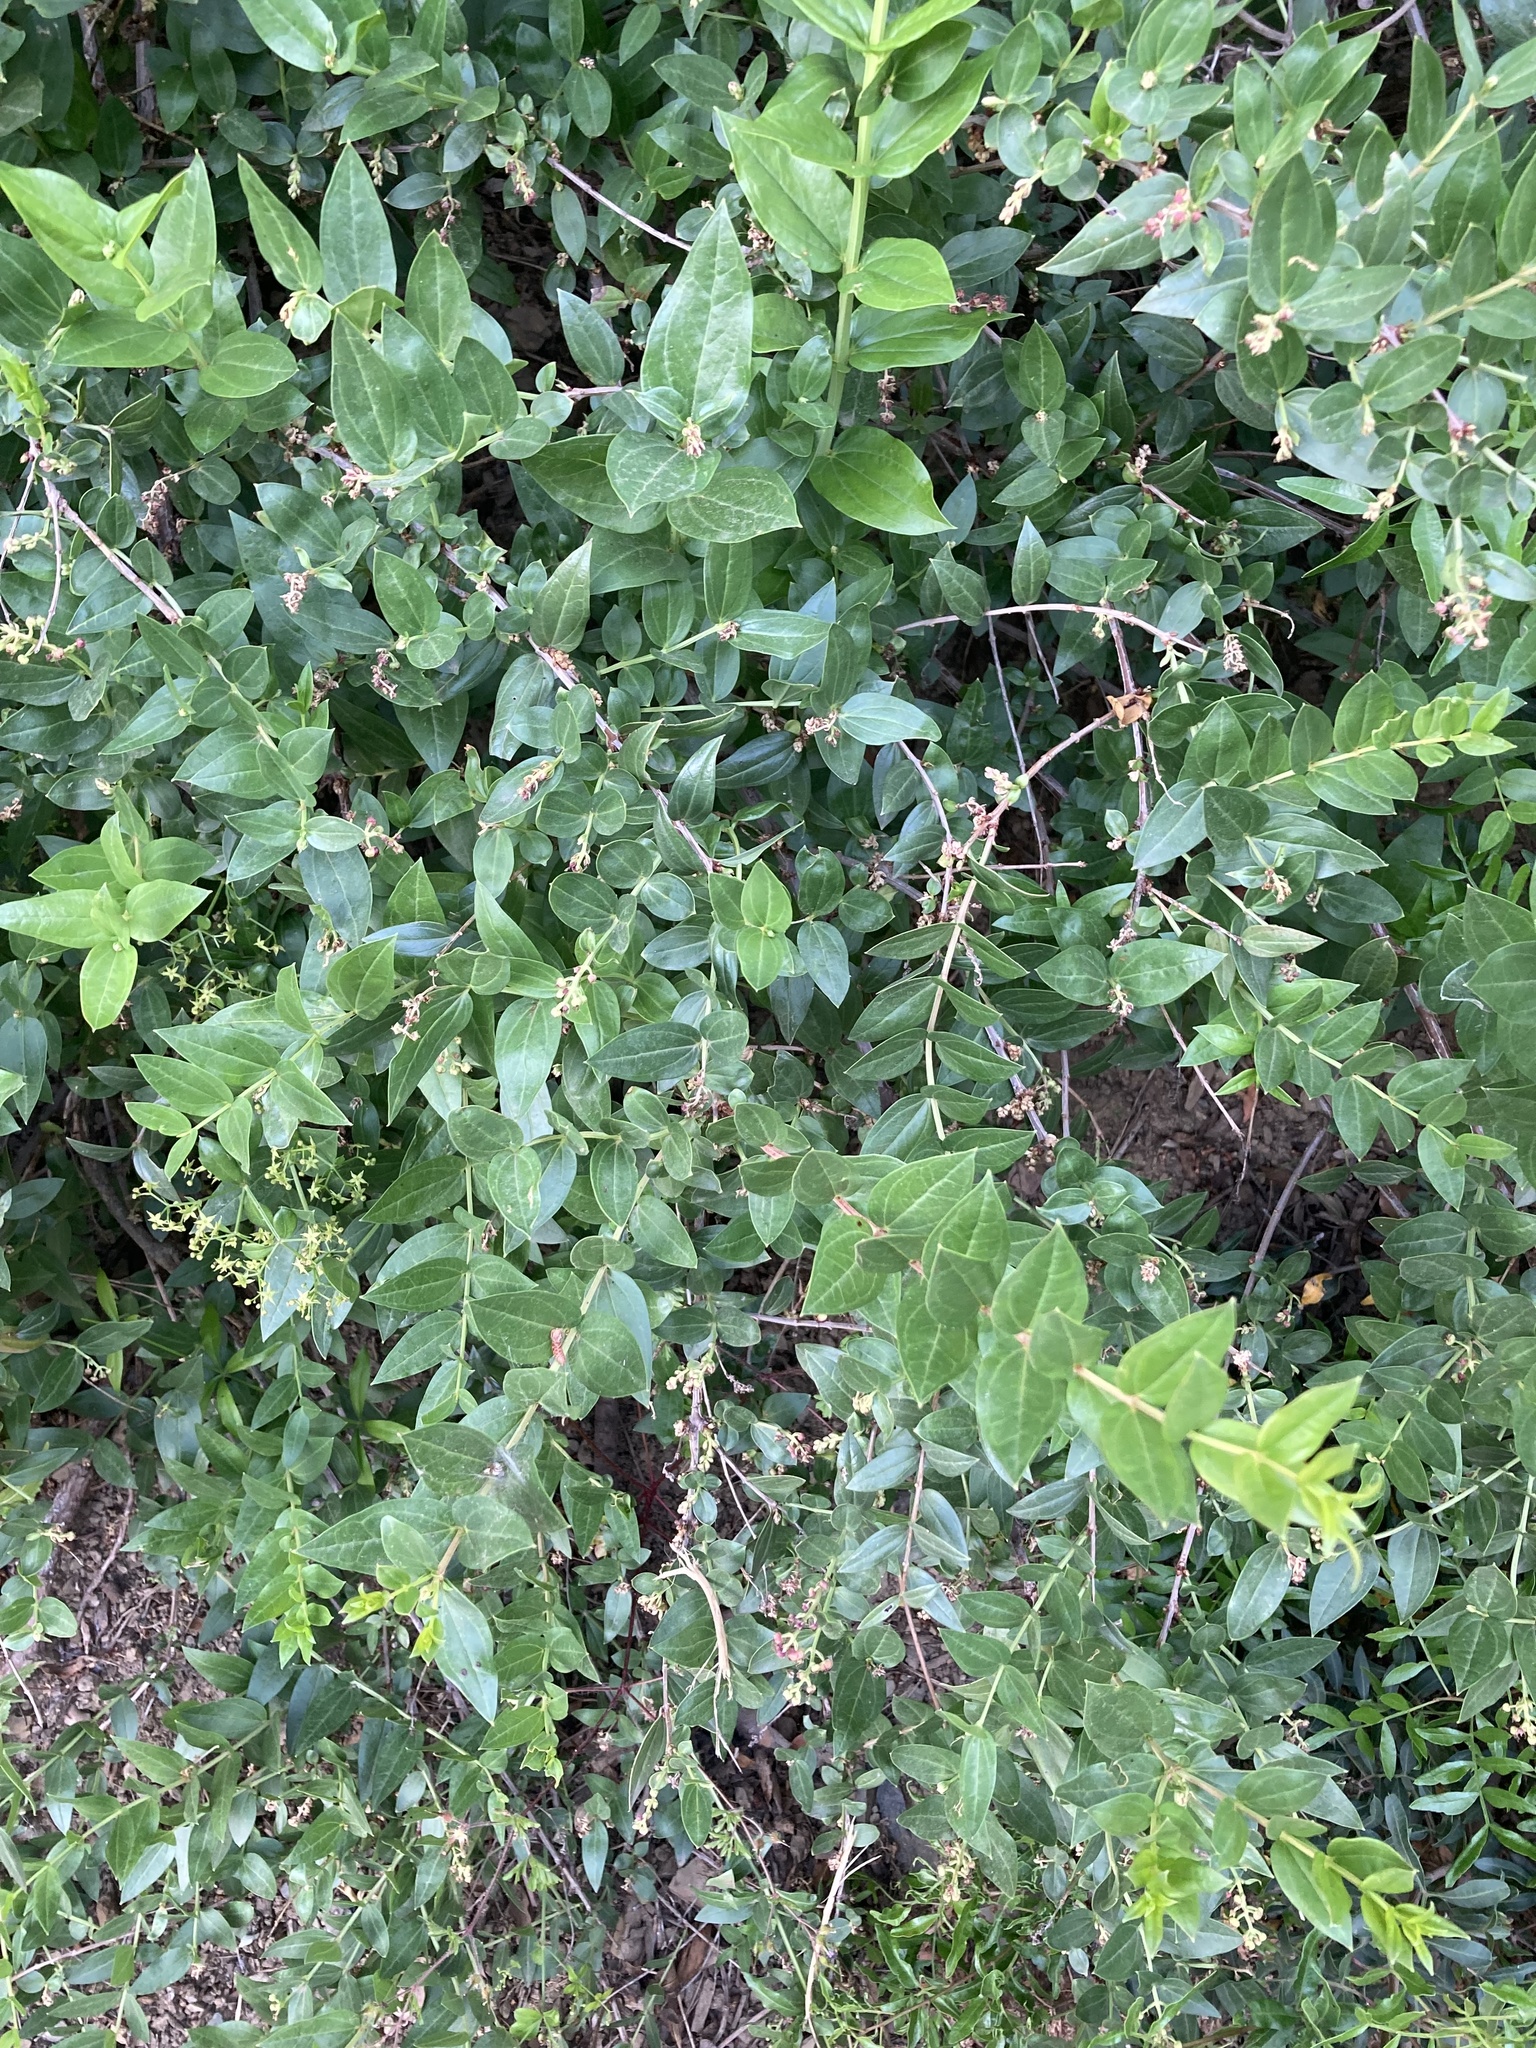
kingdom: Plantae
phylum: Tracheophyta
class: Magnoliopsida
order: Cucurbitales
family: Coriariaceae
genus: Coriaria
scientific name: Coriaria myrtifolia
